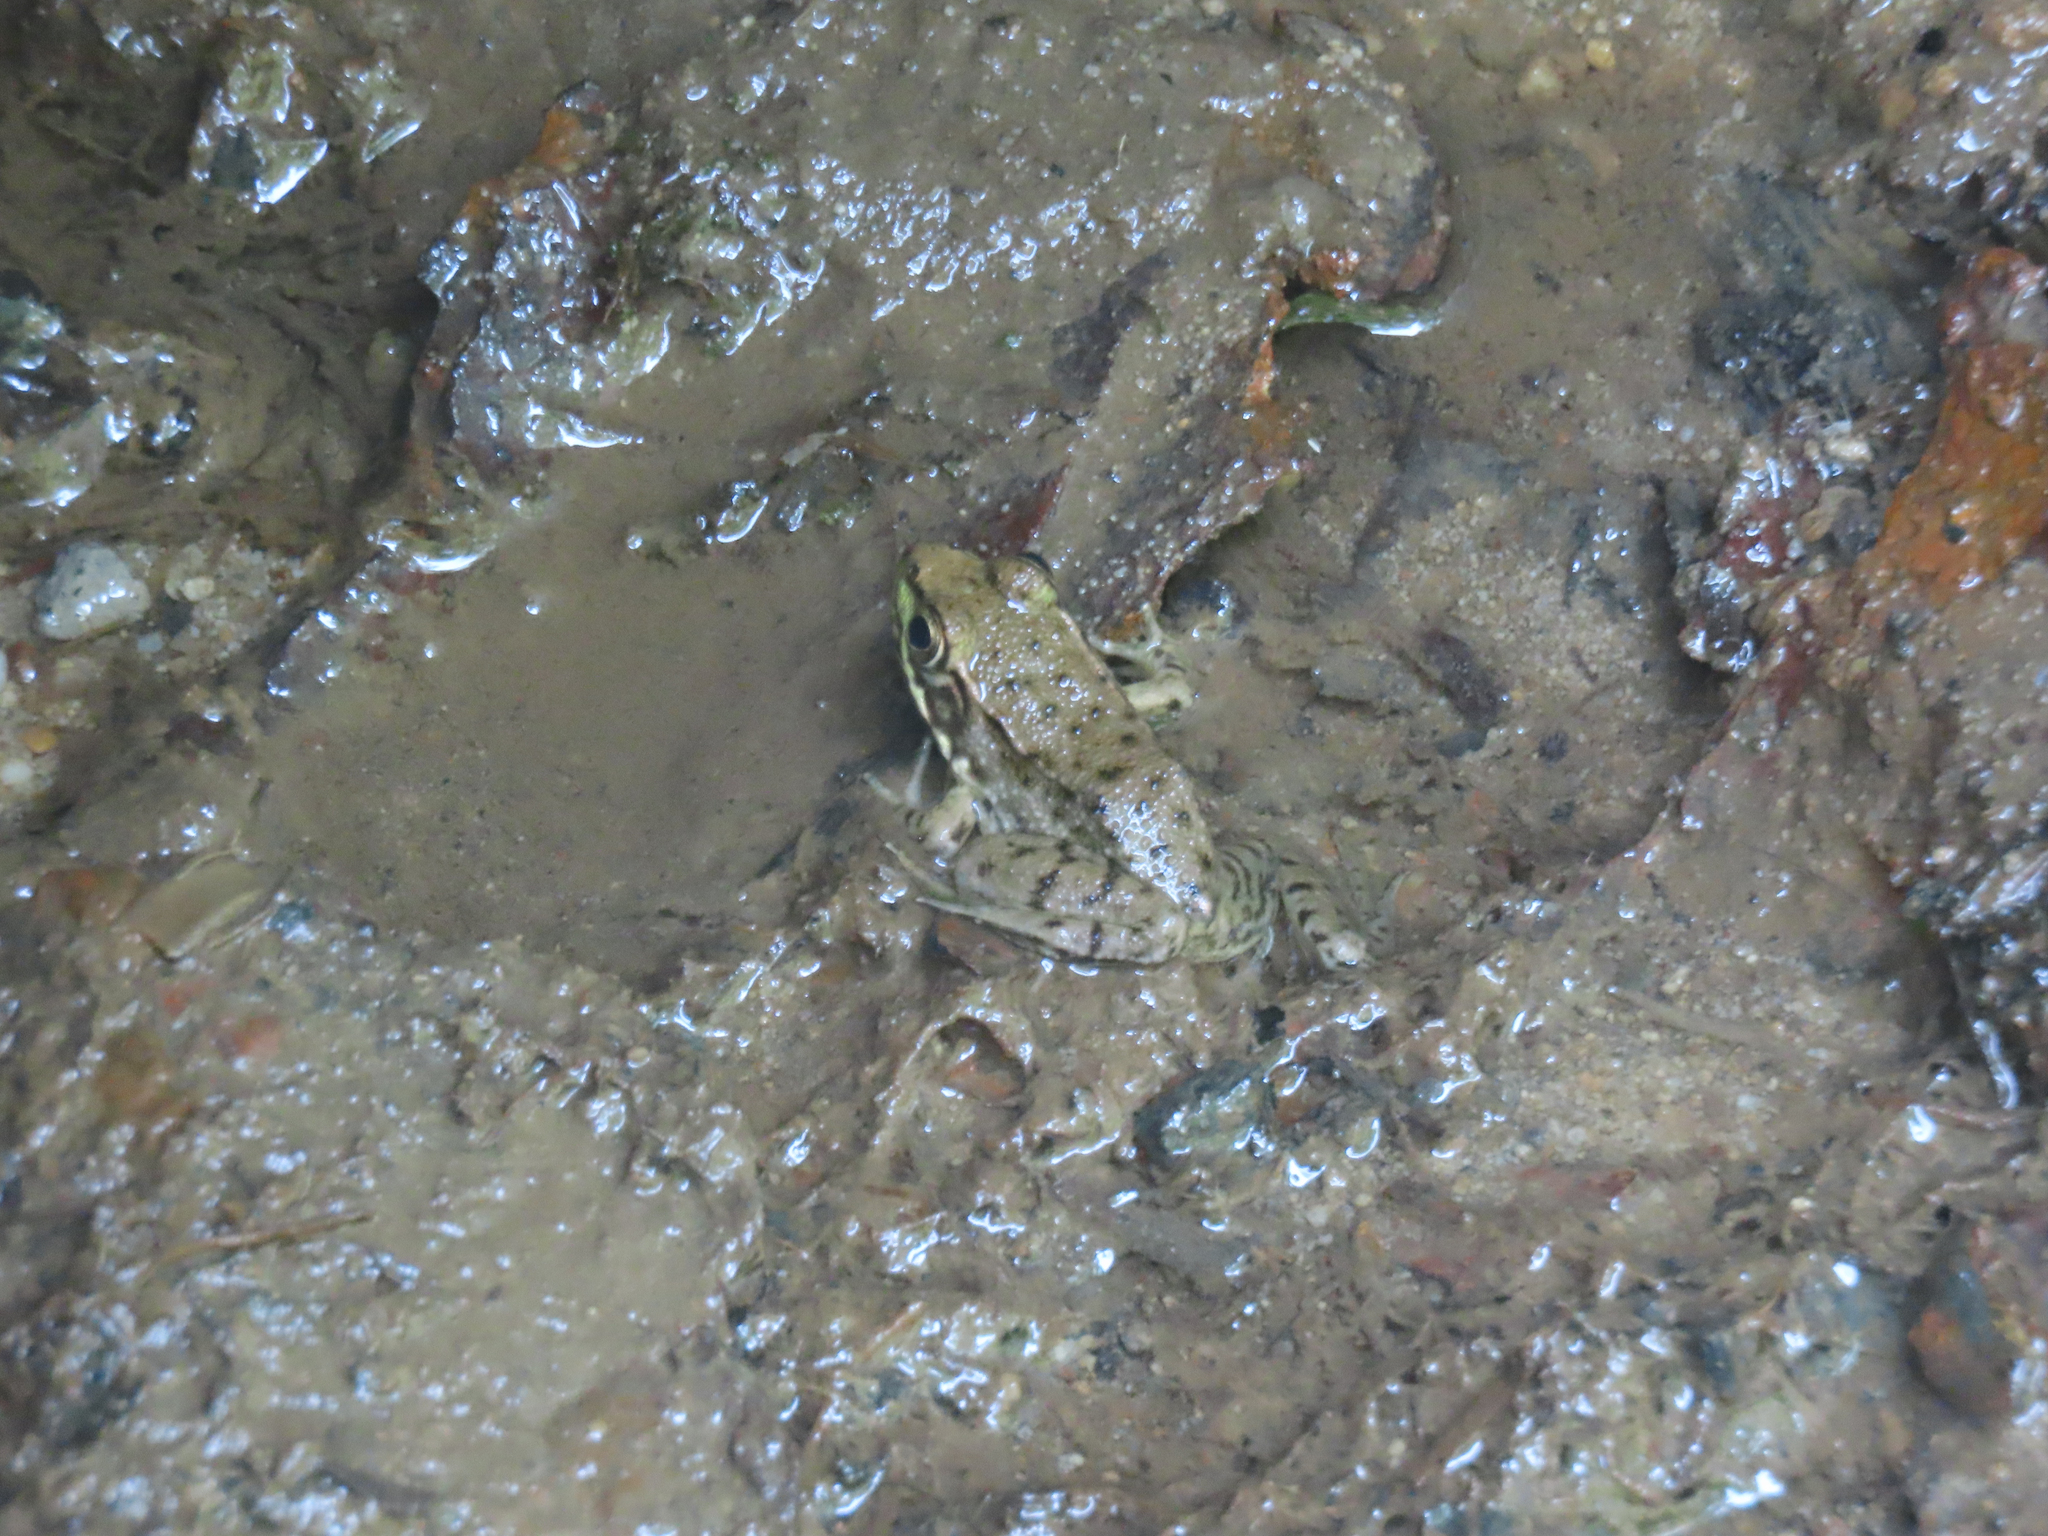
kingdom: Animalia
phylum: Chordata
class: Amphibia
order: Anura
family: Ranidae
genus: Lithobates
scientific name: Lithobates clamitans
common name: Green frog
